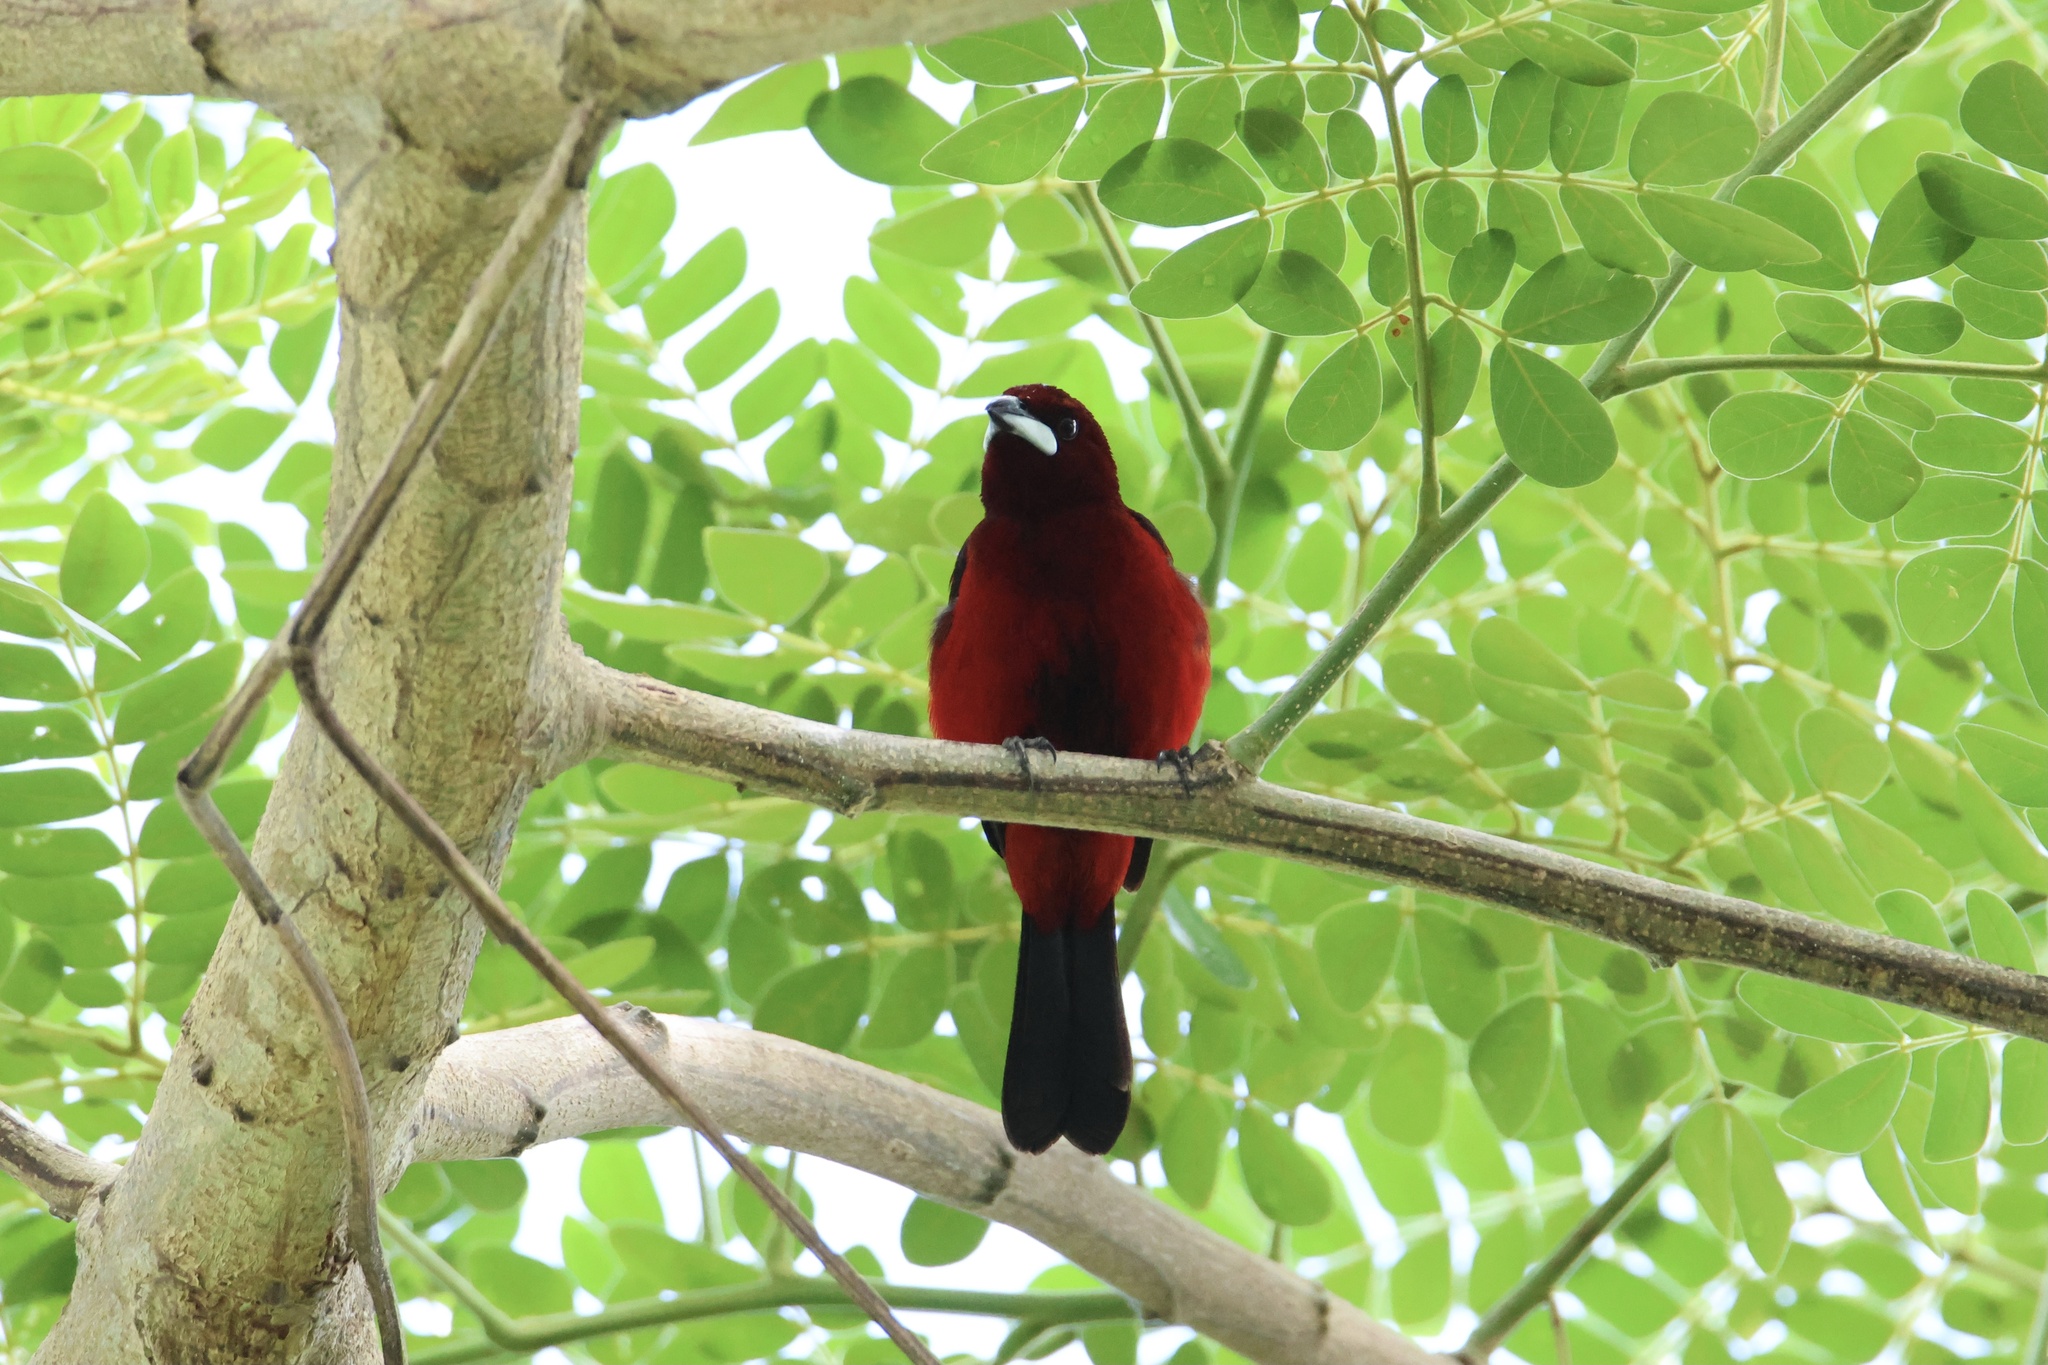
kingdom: Animalia
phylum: Chordata
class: Aves
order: Passeriformes
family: Thraupidae
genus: Ramphocelus
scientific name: Ramphocelus dimidiatus
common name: Crimson-backed tanager
